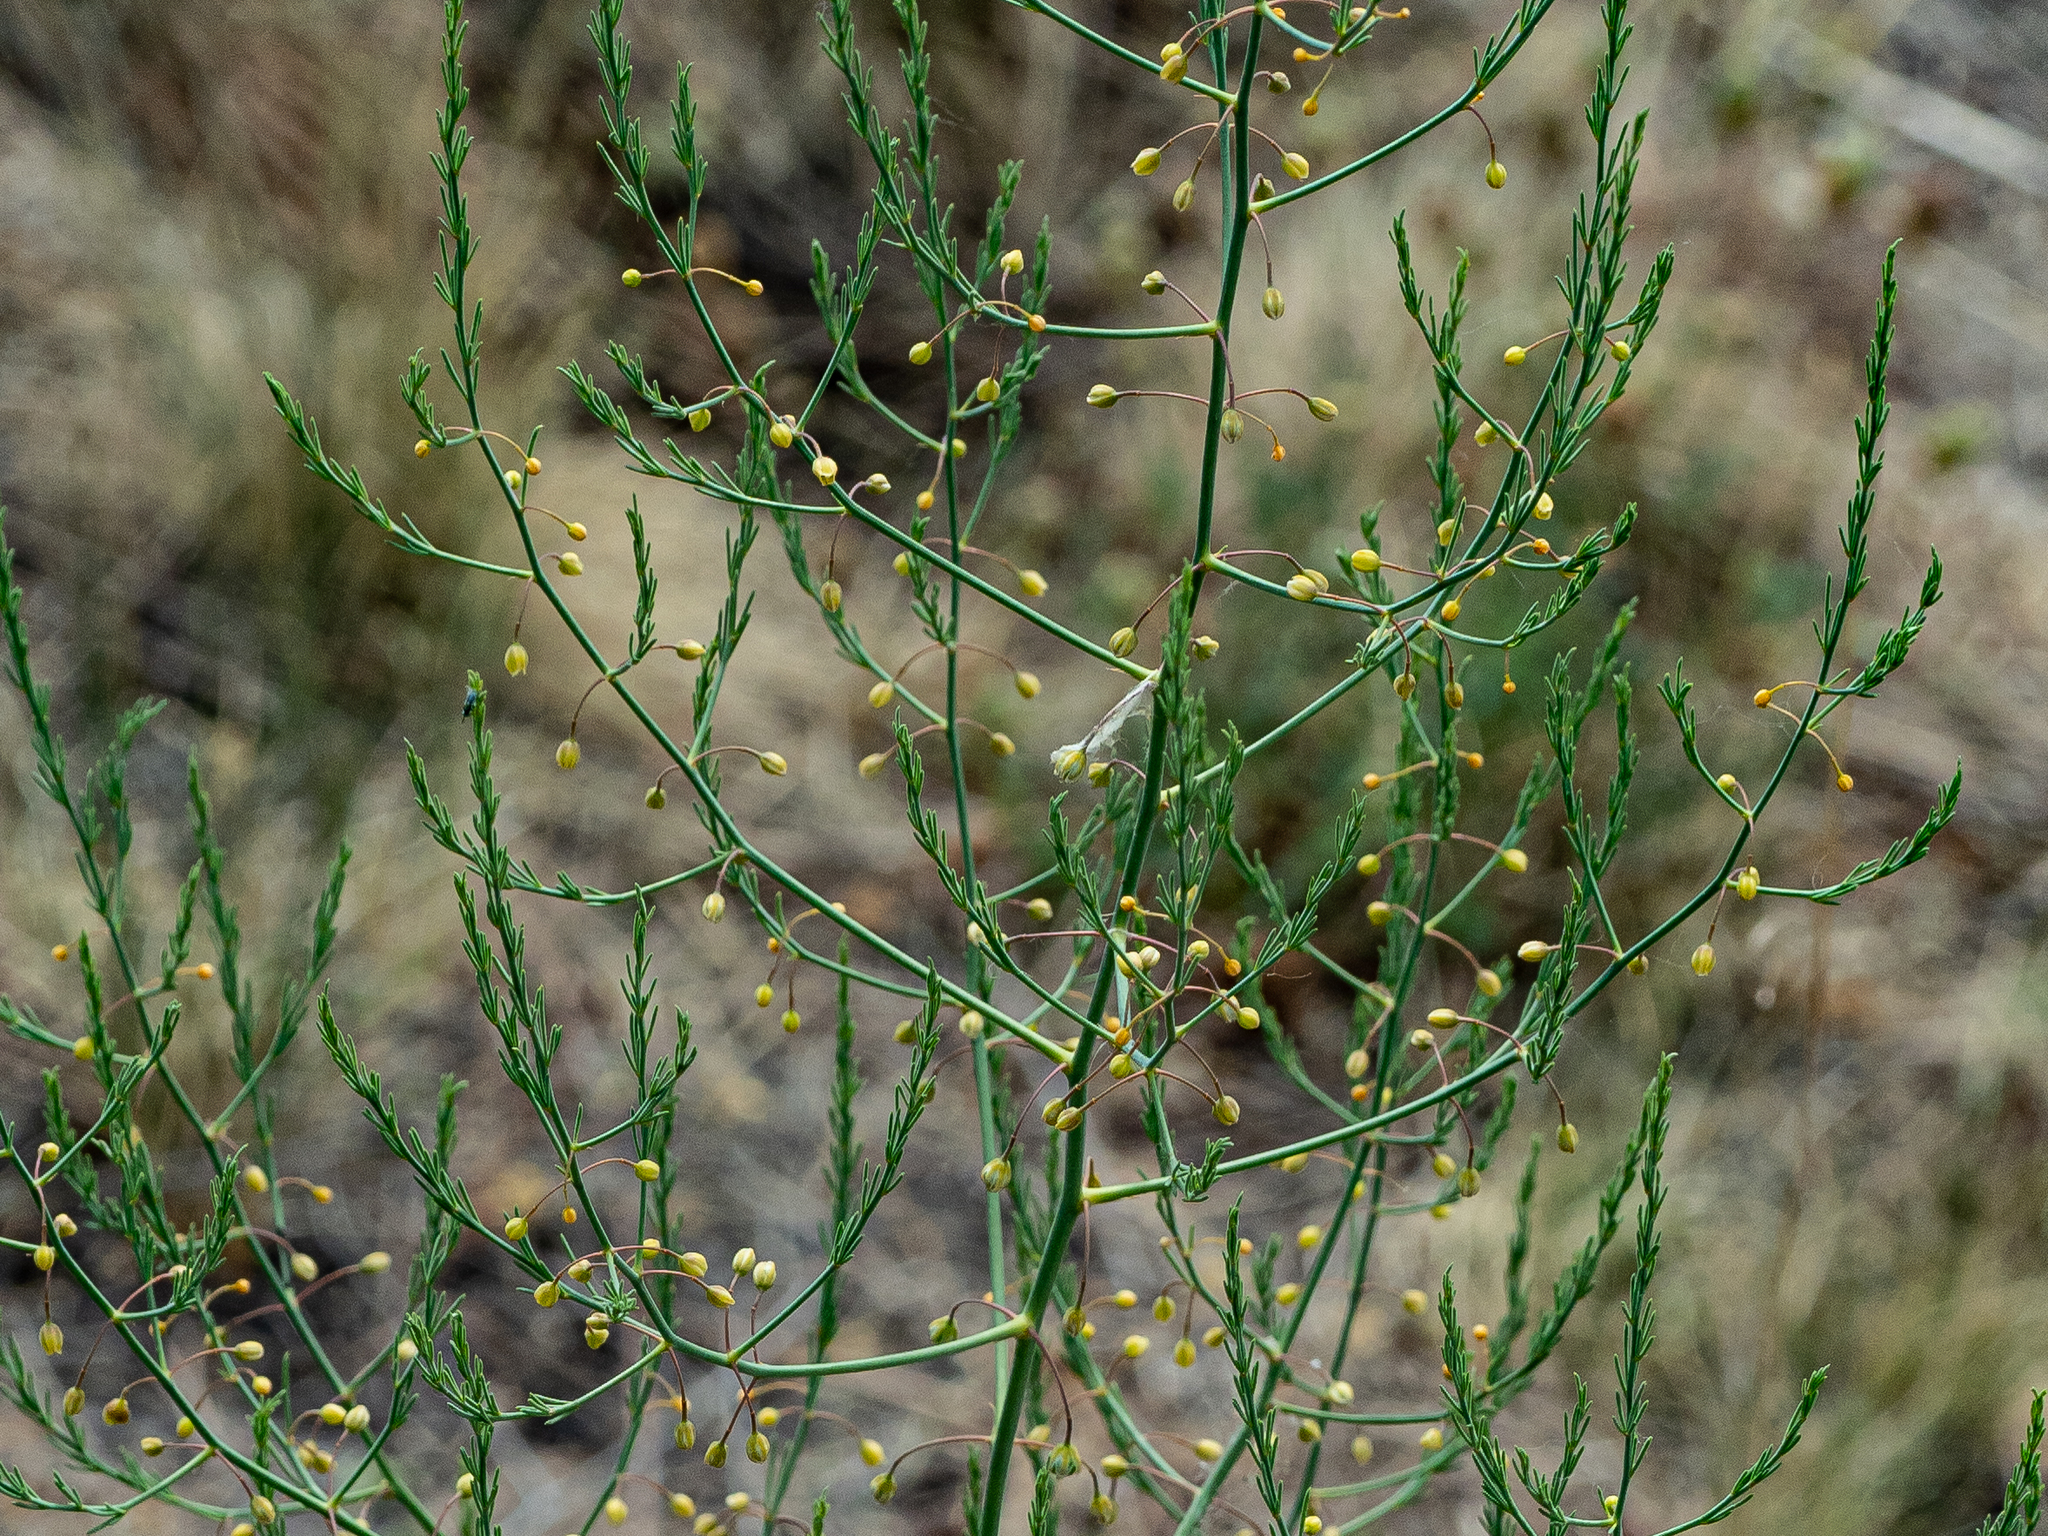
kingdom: Plantae
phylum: Tracheophyta
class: Liliopsida
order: Asparagales
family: Asparagaceae
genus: Asparagus
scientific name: Asparagus officinalis
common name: Garden asparagus
